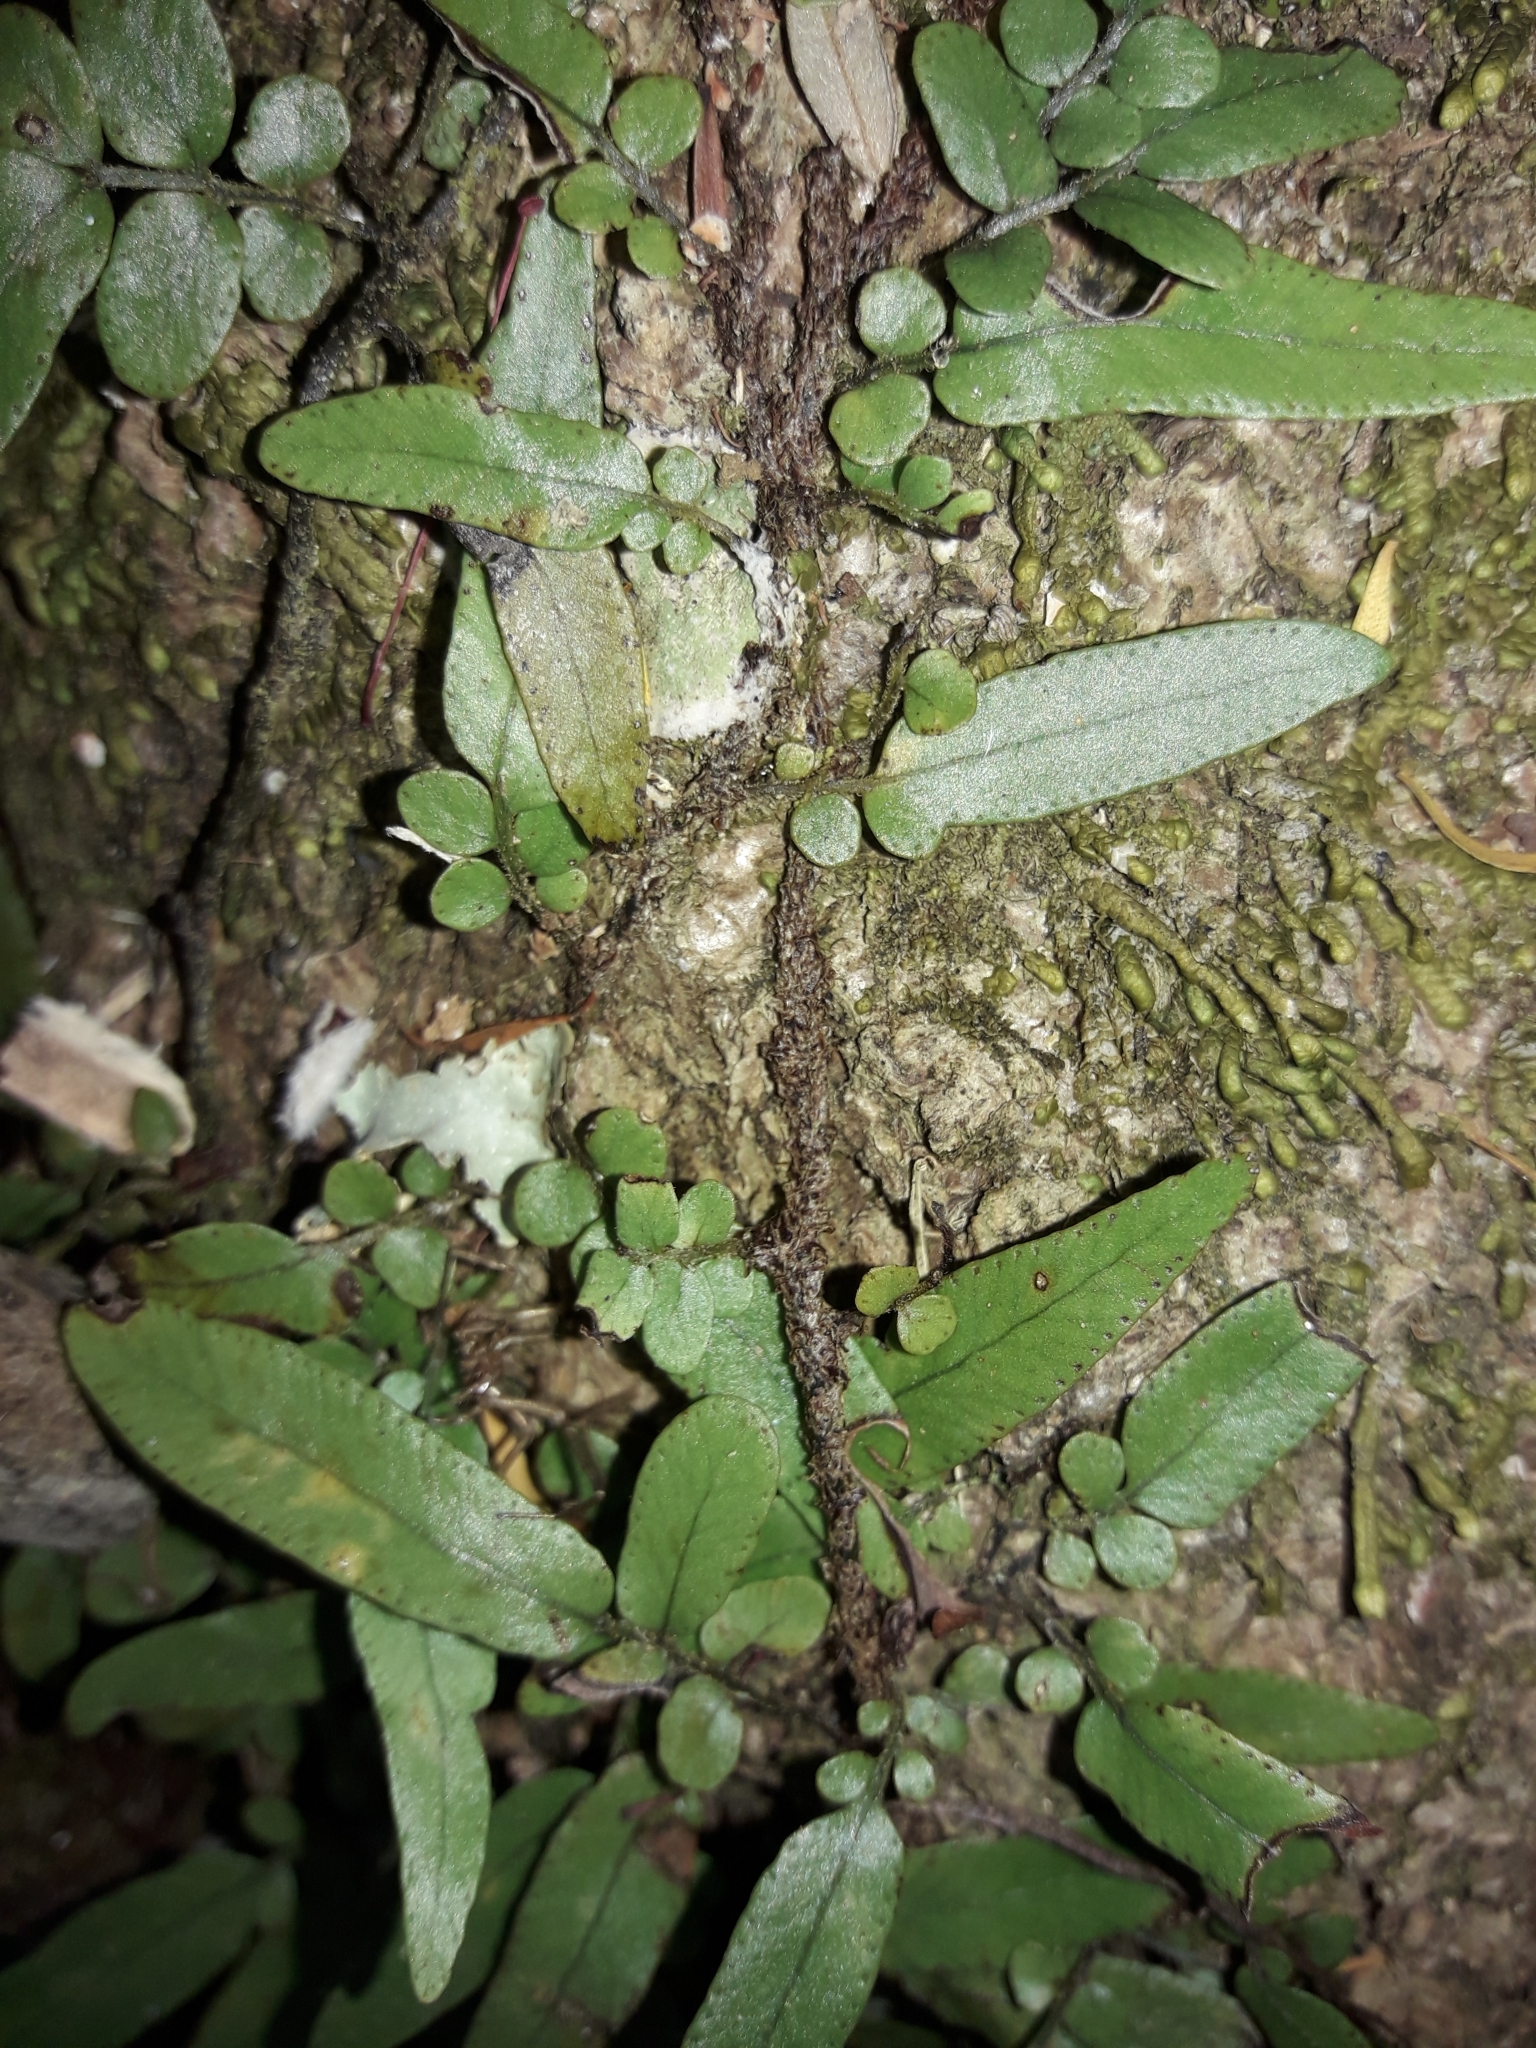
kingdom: Plantae
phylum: Tracheophyta
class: Polypodiopsida
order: Polypodiales
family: Tectariaceae
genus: Arthropteris
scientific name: Arthropteris tenella
